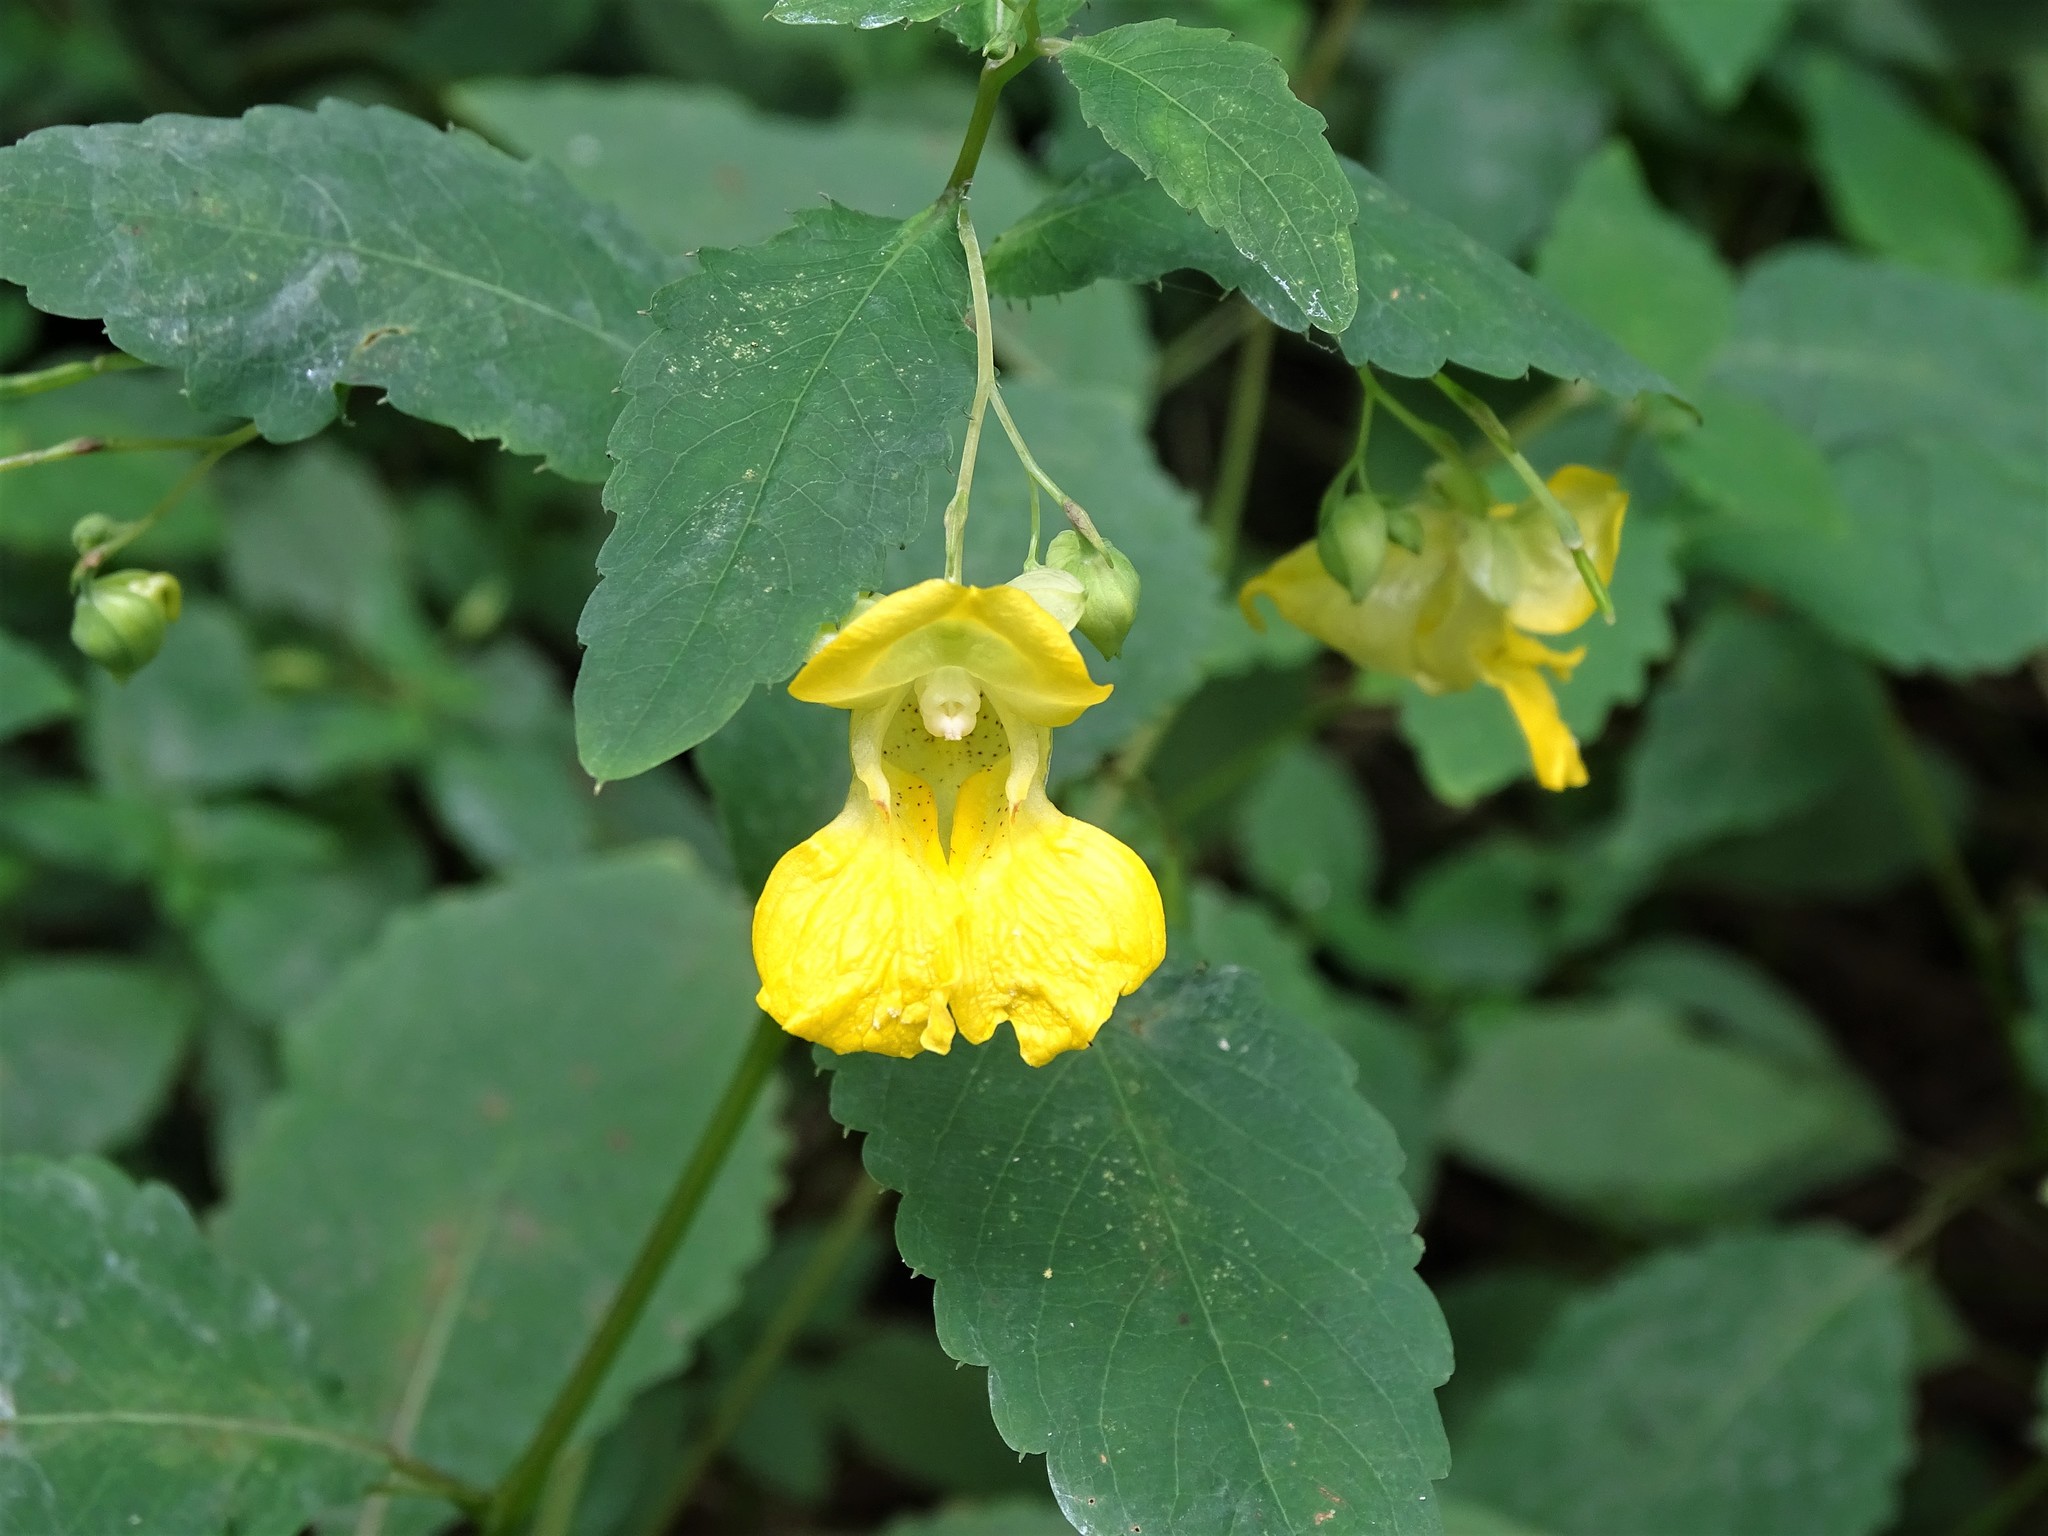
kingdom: Plantae
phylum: Tracheophyta
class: Magnoliopsida
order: Ericales
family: Balsaminaceae
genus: Impatiens
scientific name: Impatiens pallida
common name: Pale snapweed
